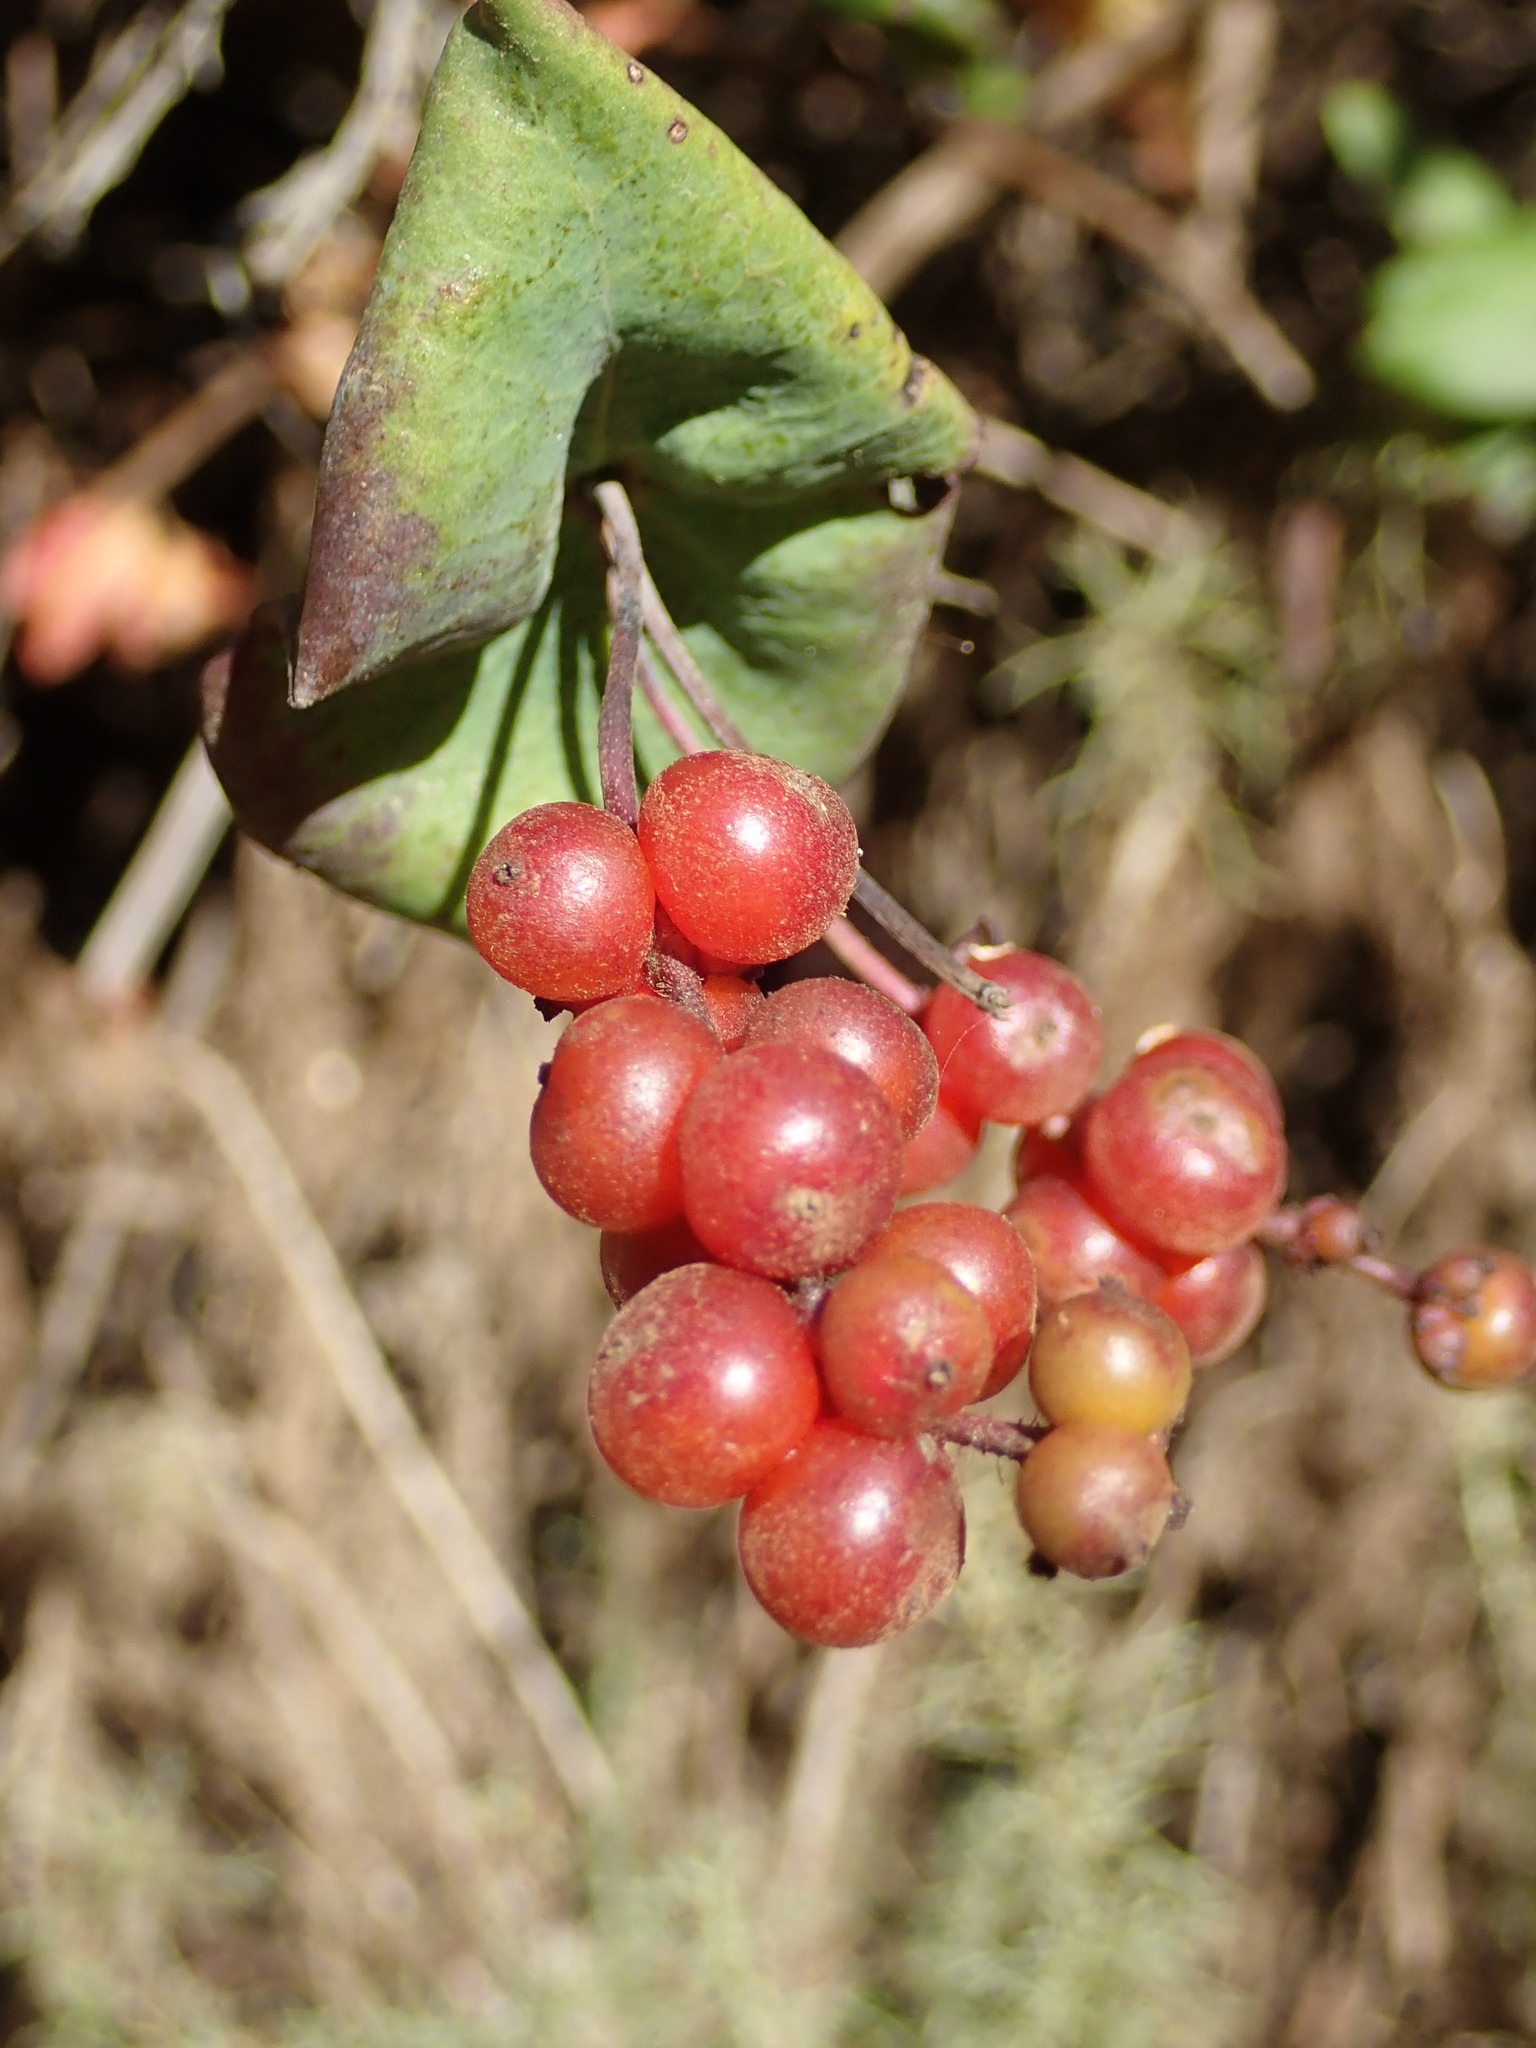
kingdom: Plantae
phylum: Tracheophyta
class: Magnoliopsida
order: Dipsacales
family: Caprifoliaceae
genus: Lonicera
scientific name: Lonicera hispidula
